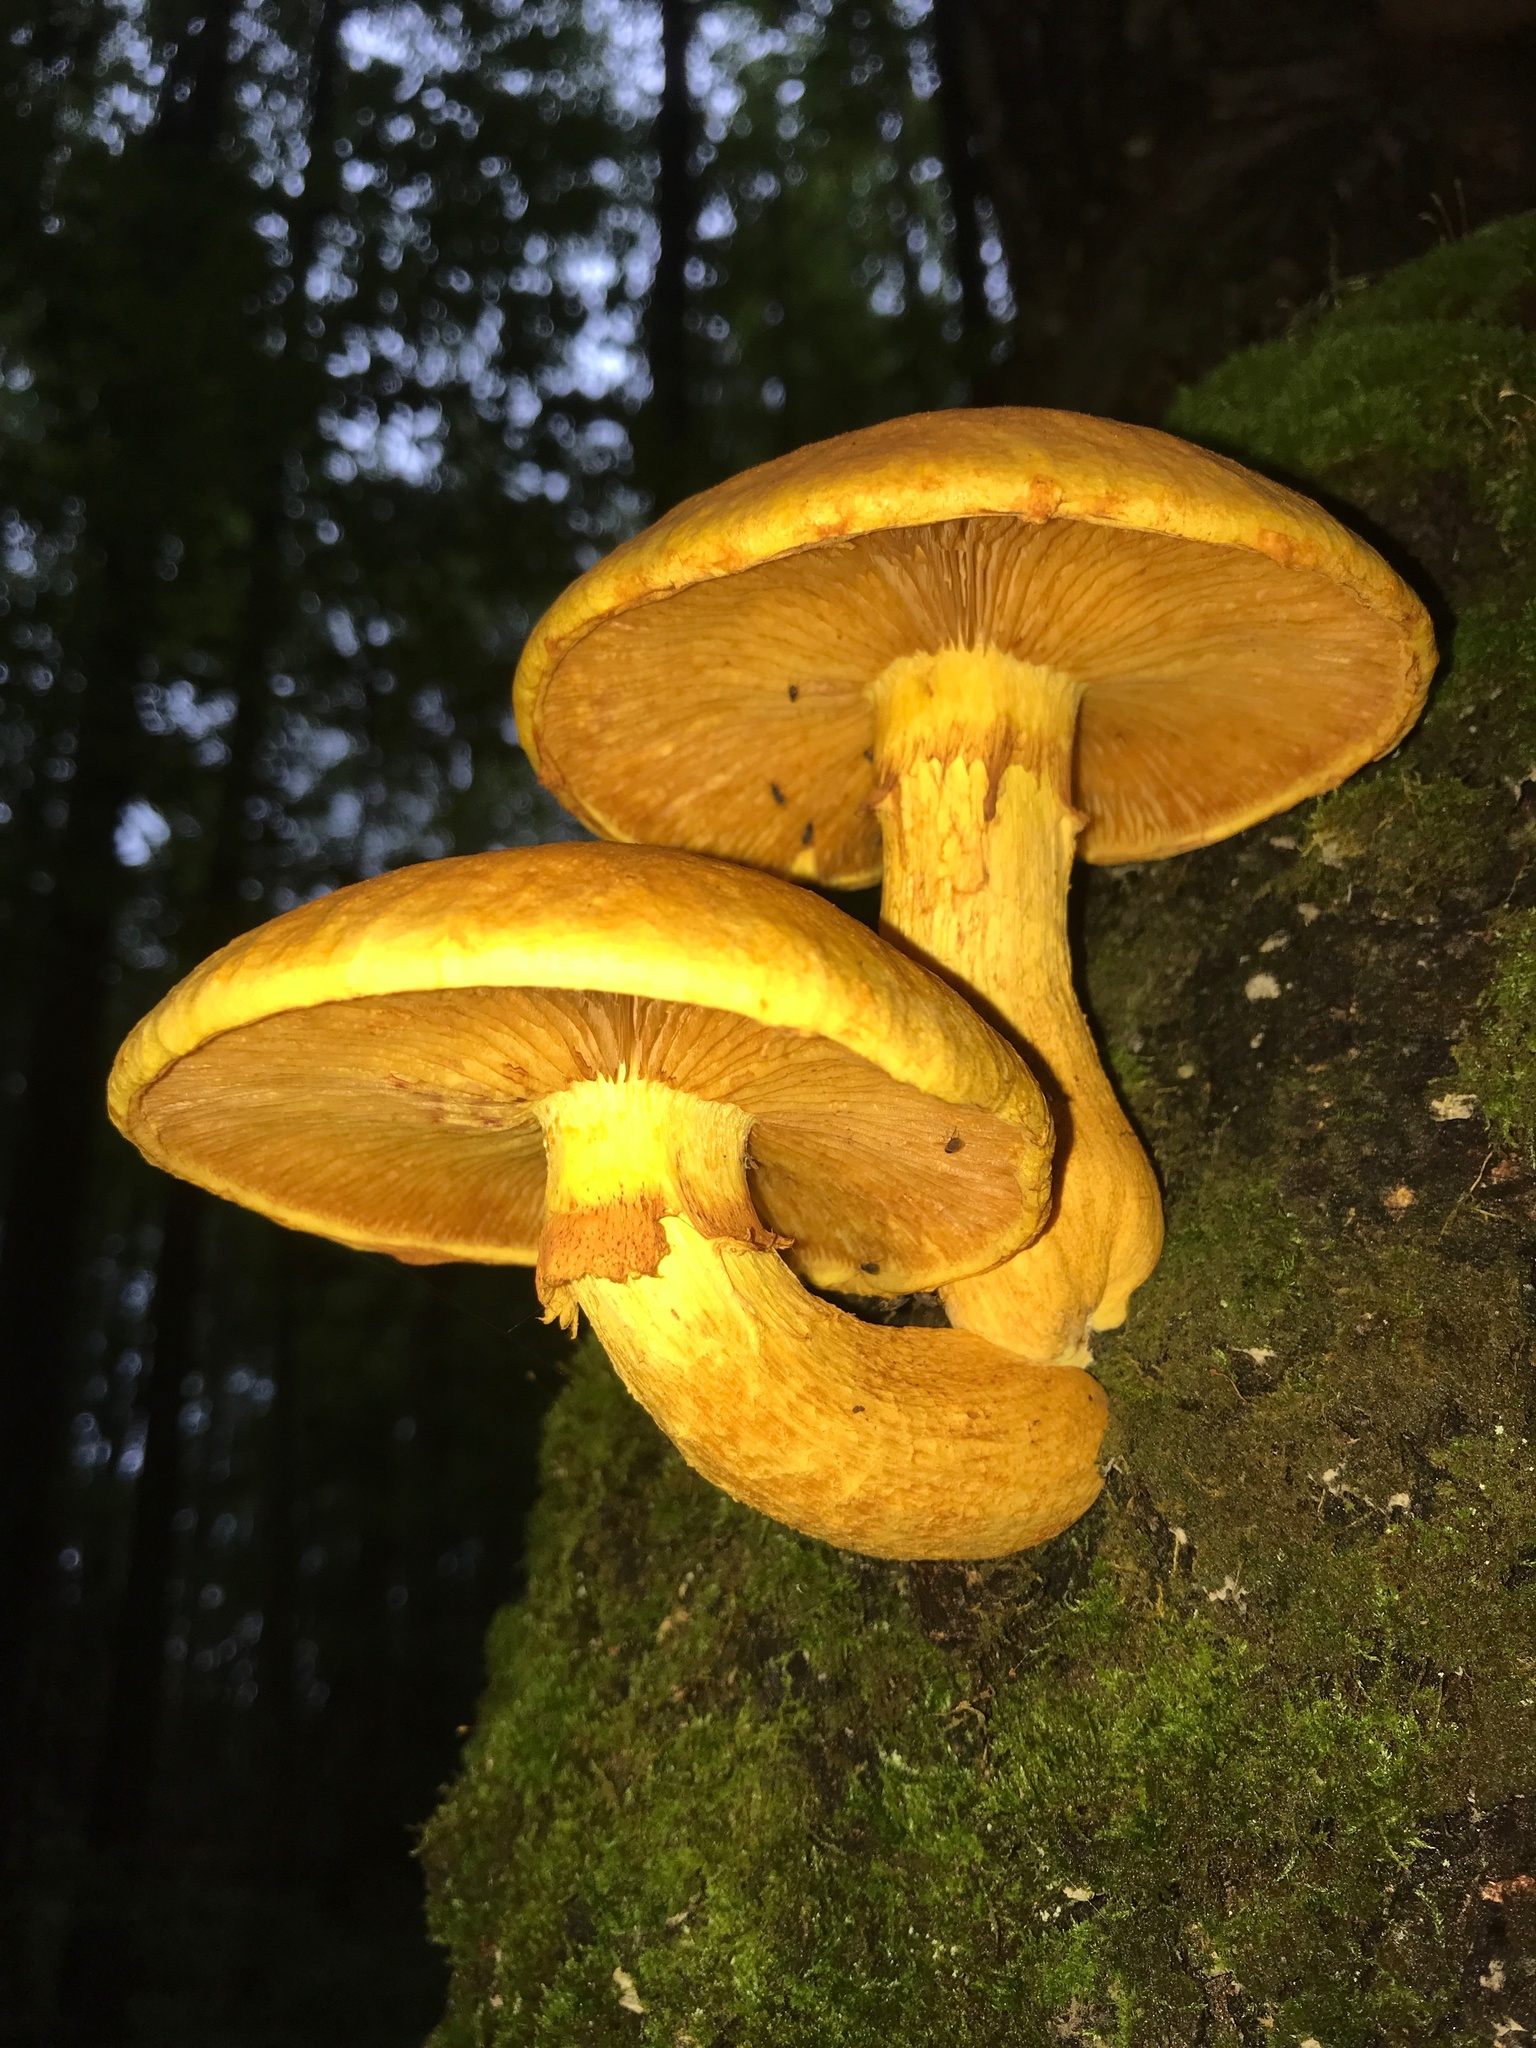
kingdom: Fungi
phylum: Basidiomycota
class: Agaricomycetes
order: Agaricales
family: Hymenogastraceae
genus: Gymnopilus
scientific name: Gymnopilus junonius
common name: Spectacular rustgill
